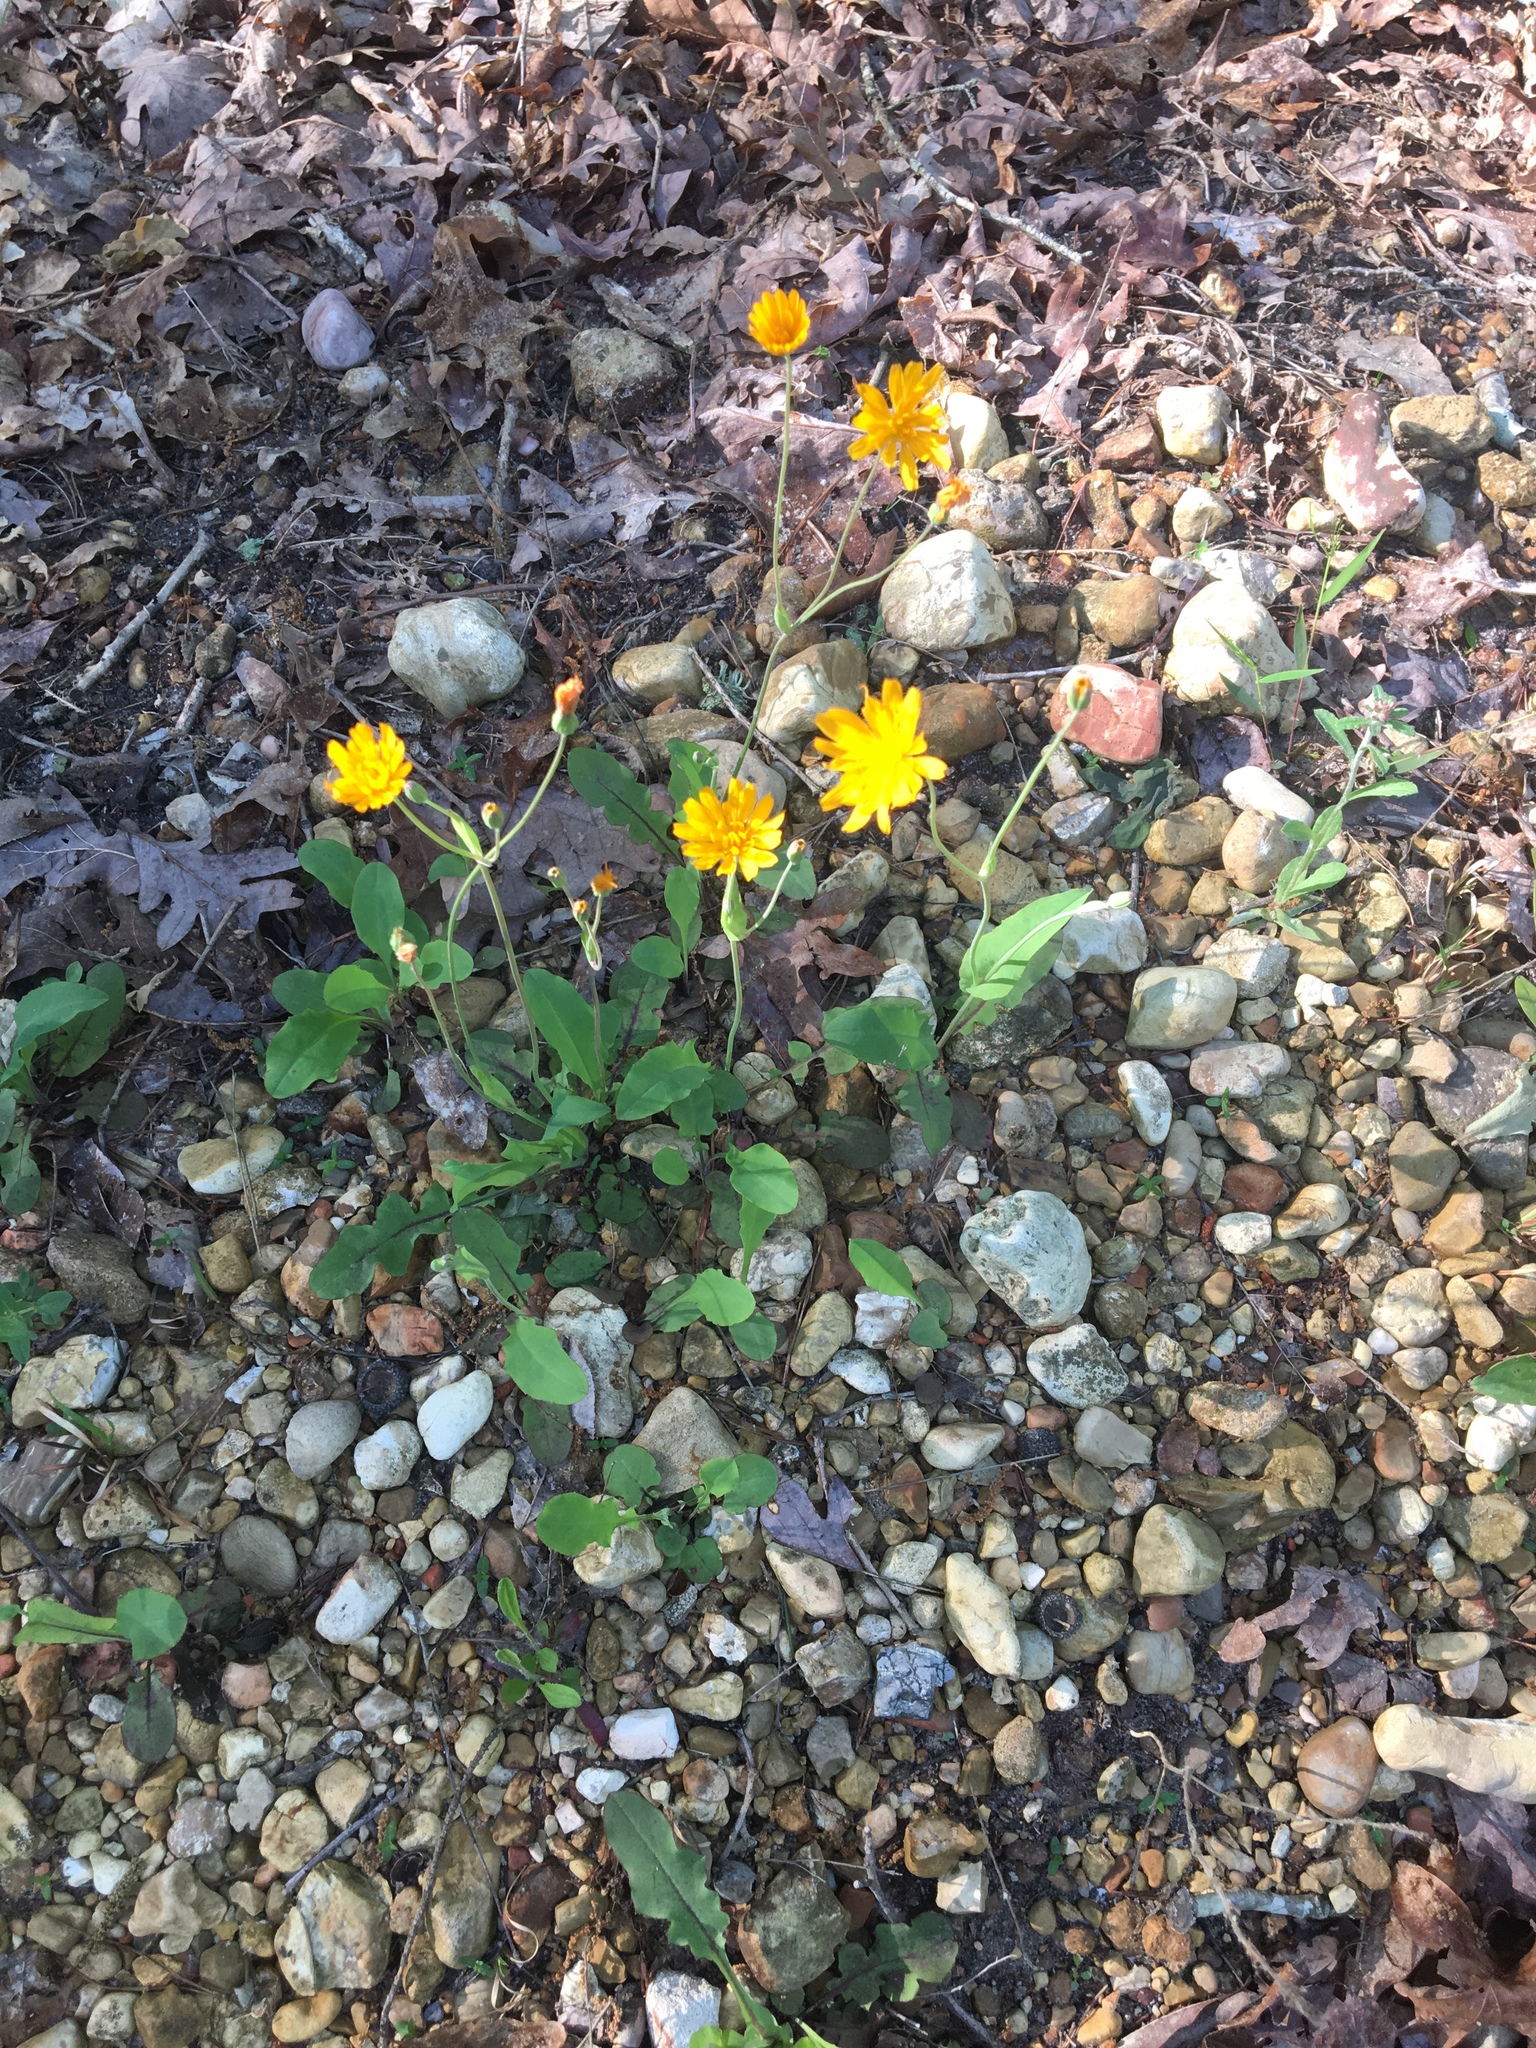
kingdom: Plantae
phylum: Tracheophyta
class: Magnoliopsida
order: Asterales
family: Asteraceae
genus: Krigia
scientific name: Krigia biflora
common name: Orange dwarf-dandelion
